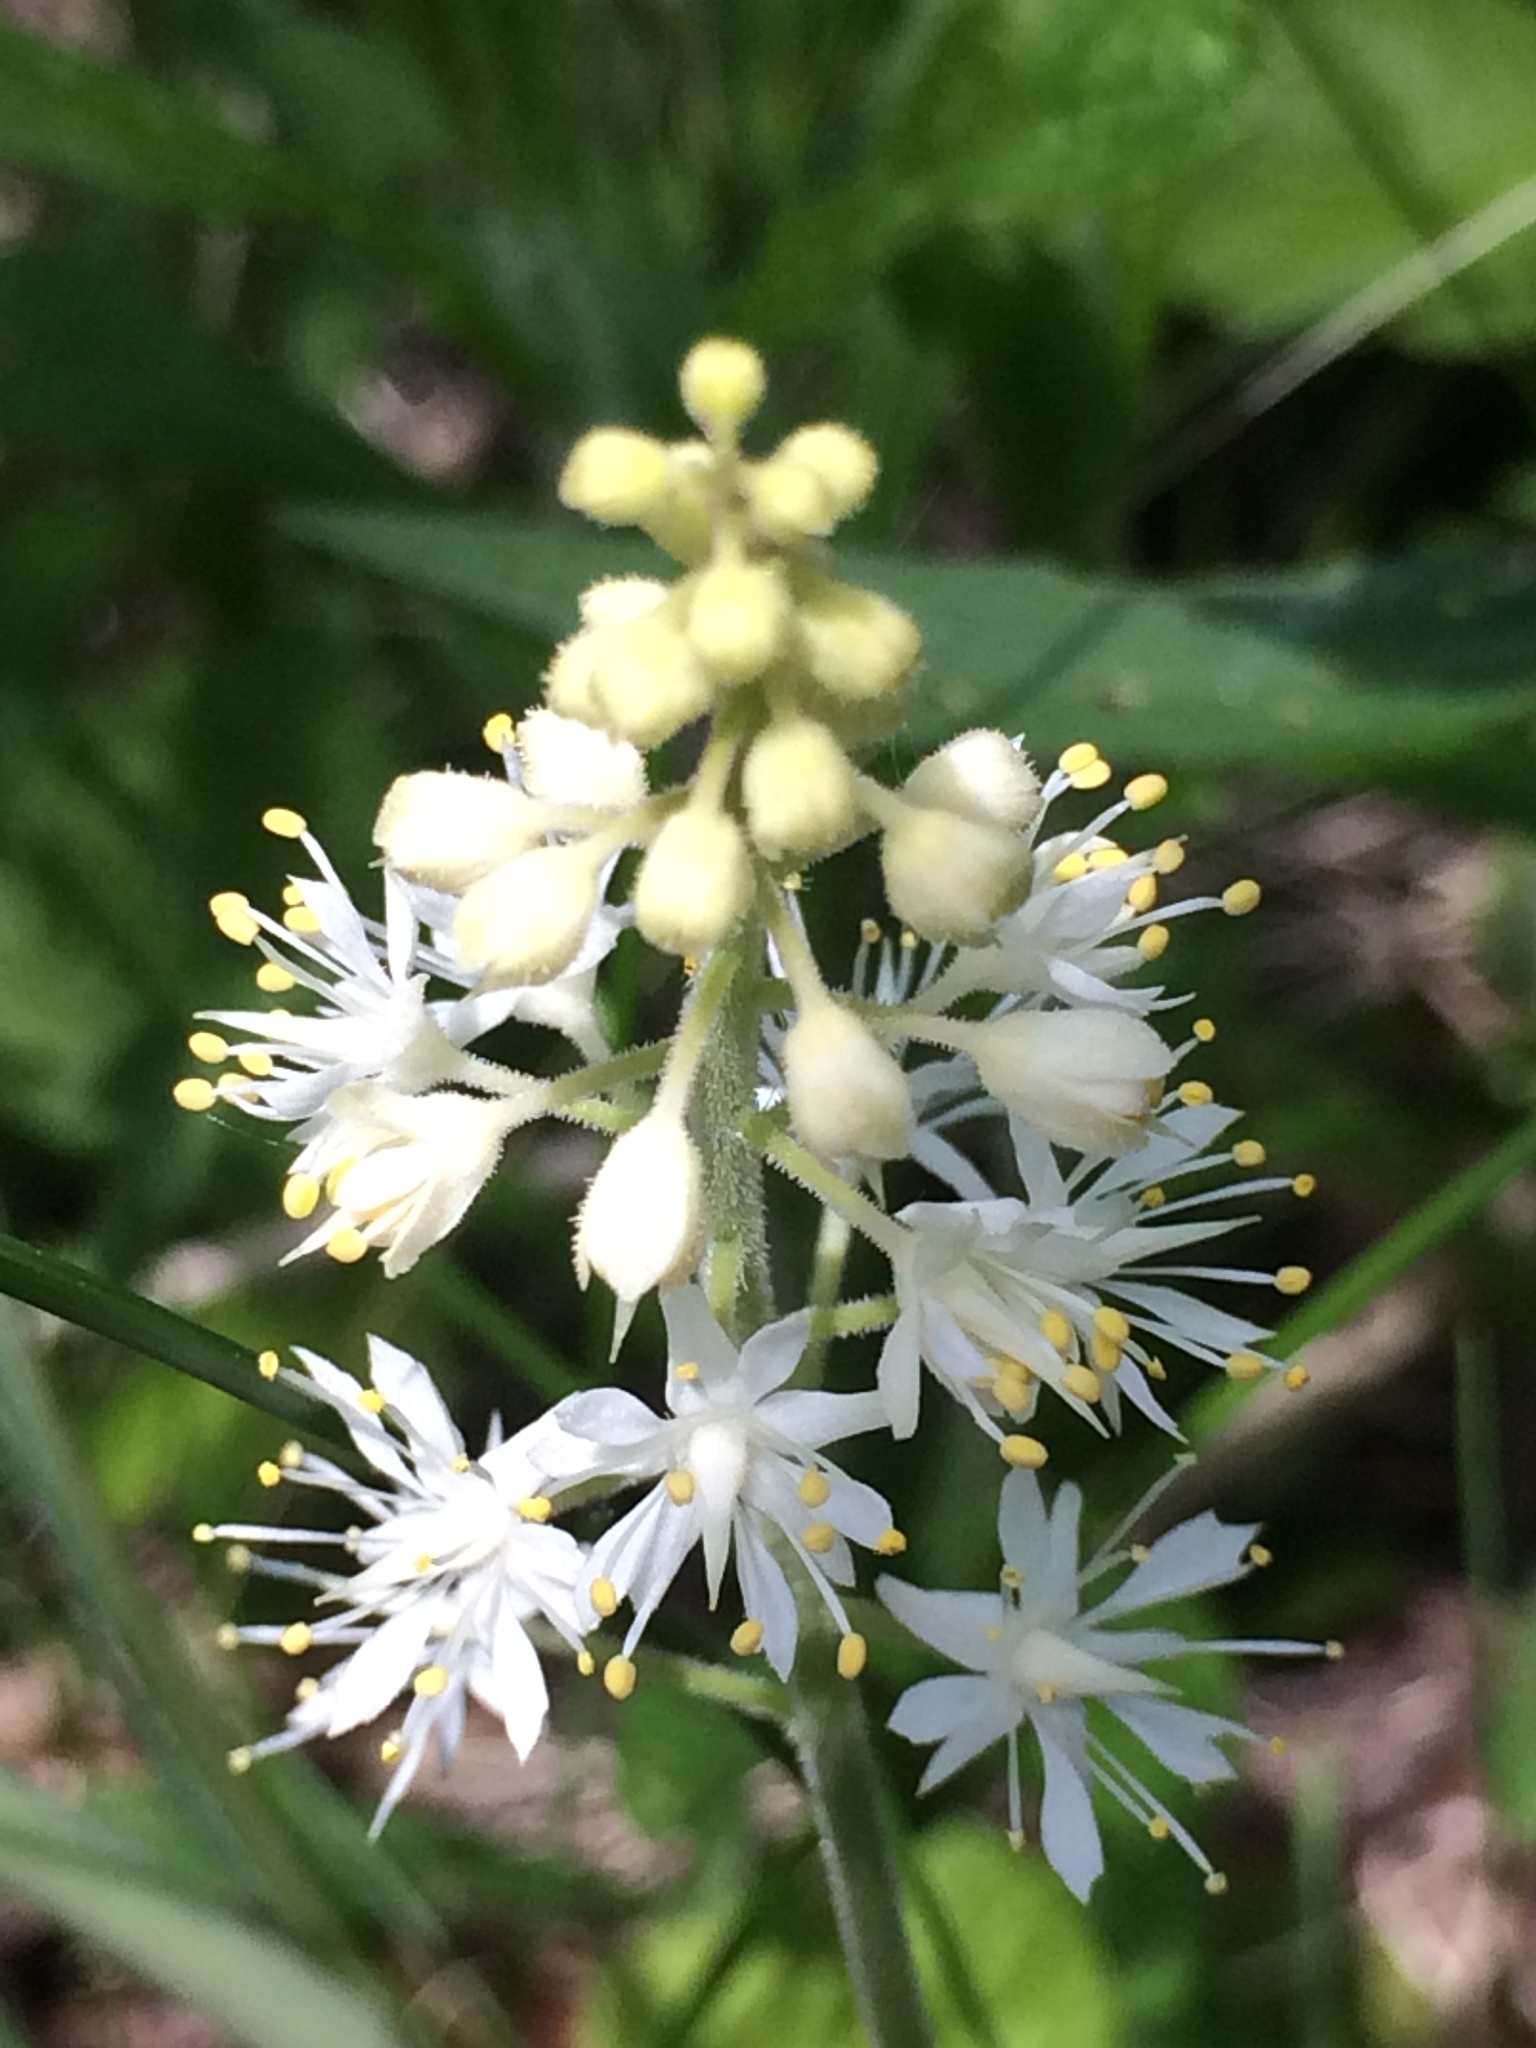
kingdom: Plantae
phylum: Tracheophyta
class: Magnoliopsida
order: Saxifragales
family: Saxifragaceae
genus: Tiarella
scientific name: Tiarella stolonifera
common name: Stoloniferous foamflower
